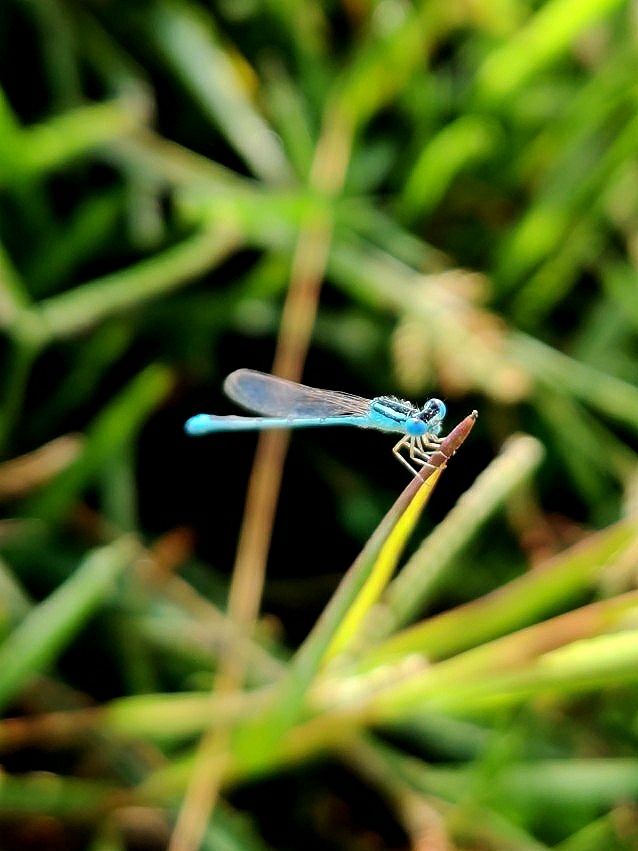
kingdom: Animalia
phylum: Arthropoda
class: Insecta
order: Odonata
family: Coenagrionidae
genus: Amphiallagma
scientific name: Amphiallagma parvum
